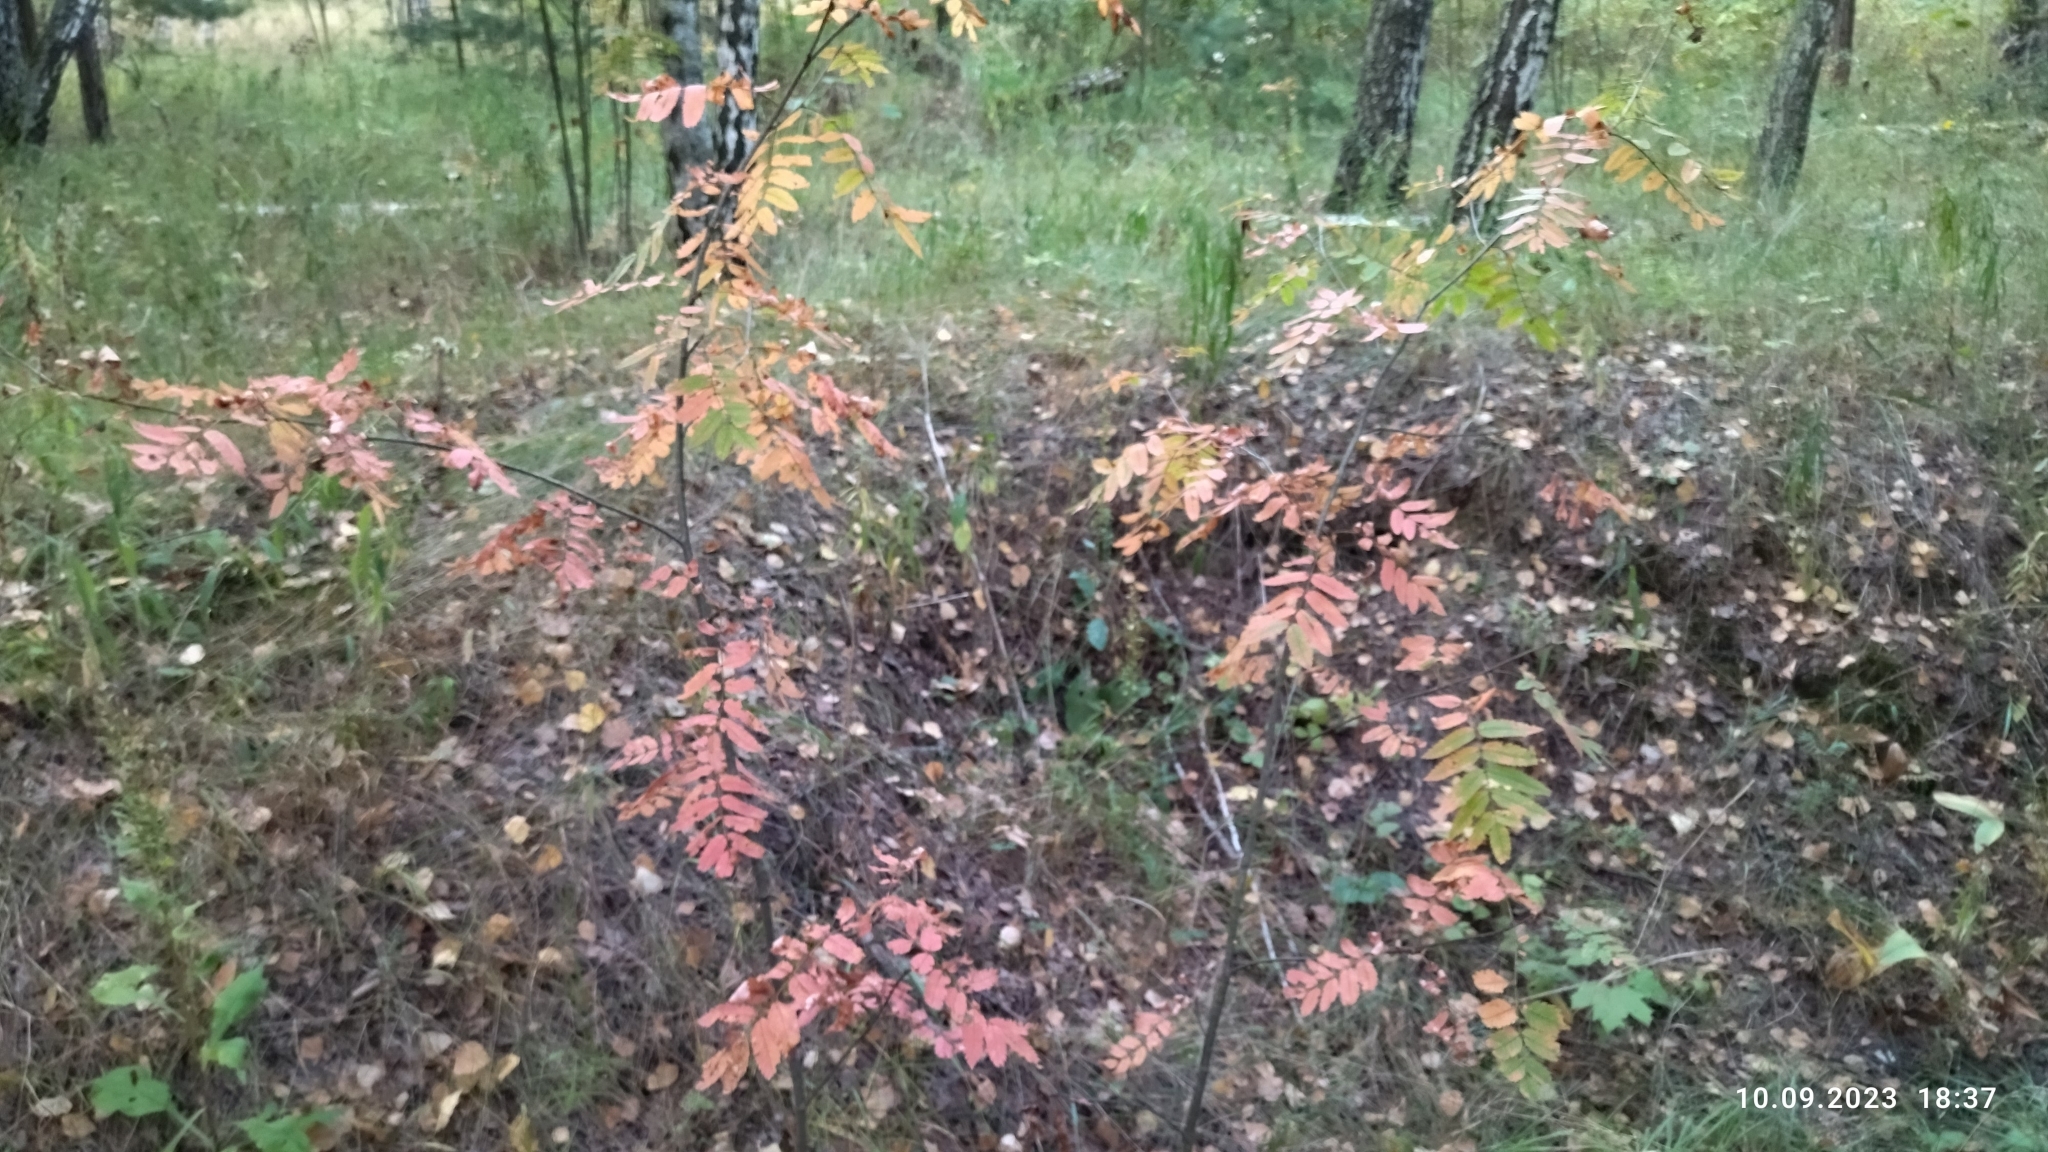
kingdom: Plantae
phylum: Tracheophyta
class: Magnoliopsida
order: Rosales
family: Rosaceae
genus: Sorbus
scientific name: Sorbus aucuparia
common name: Rowan
